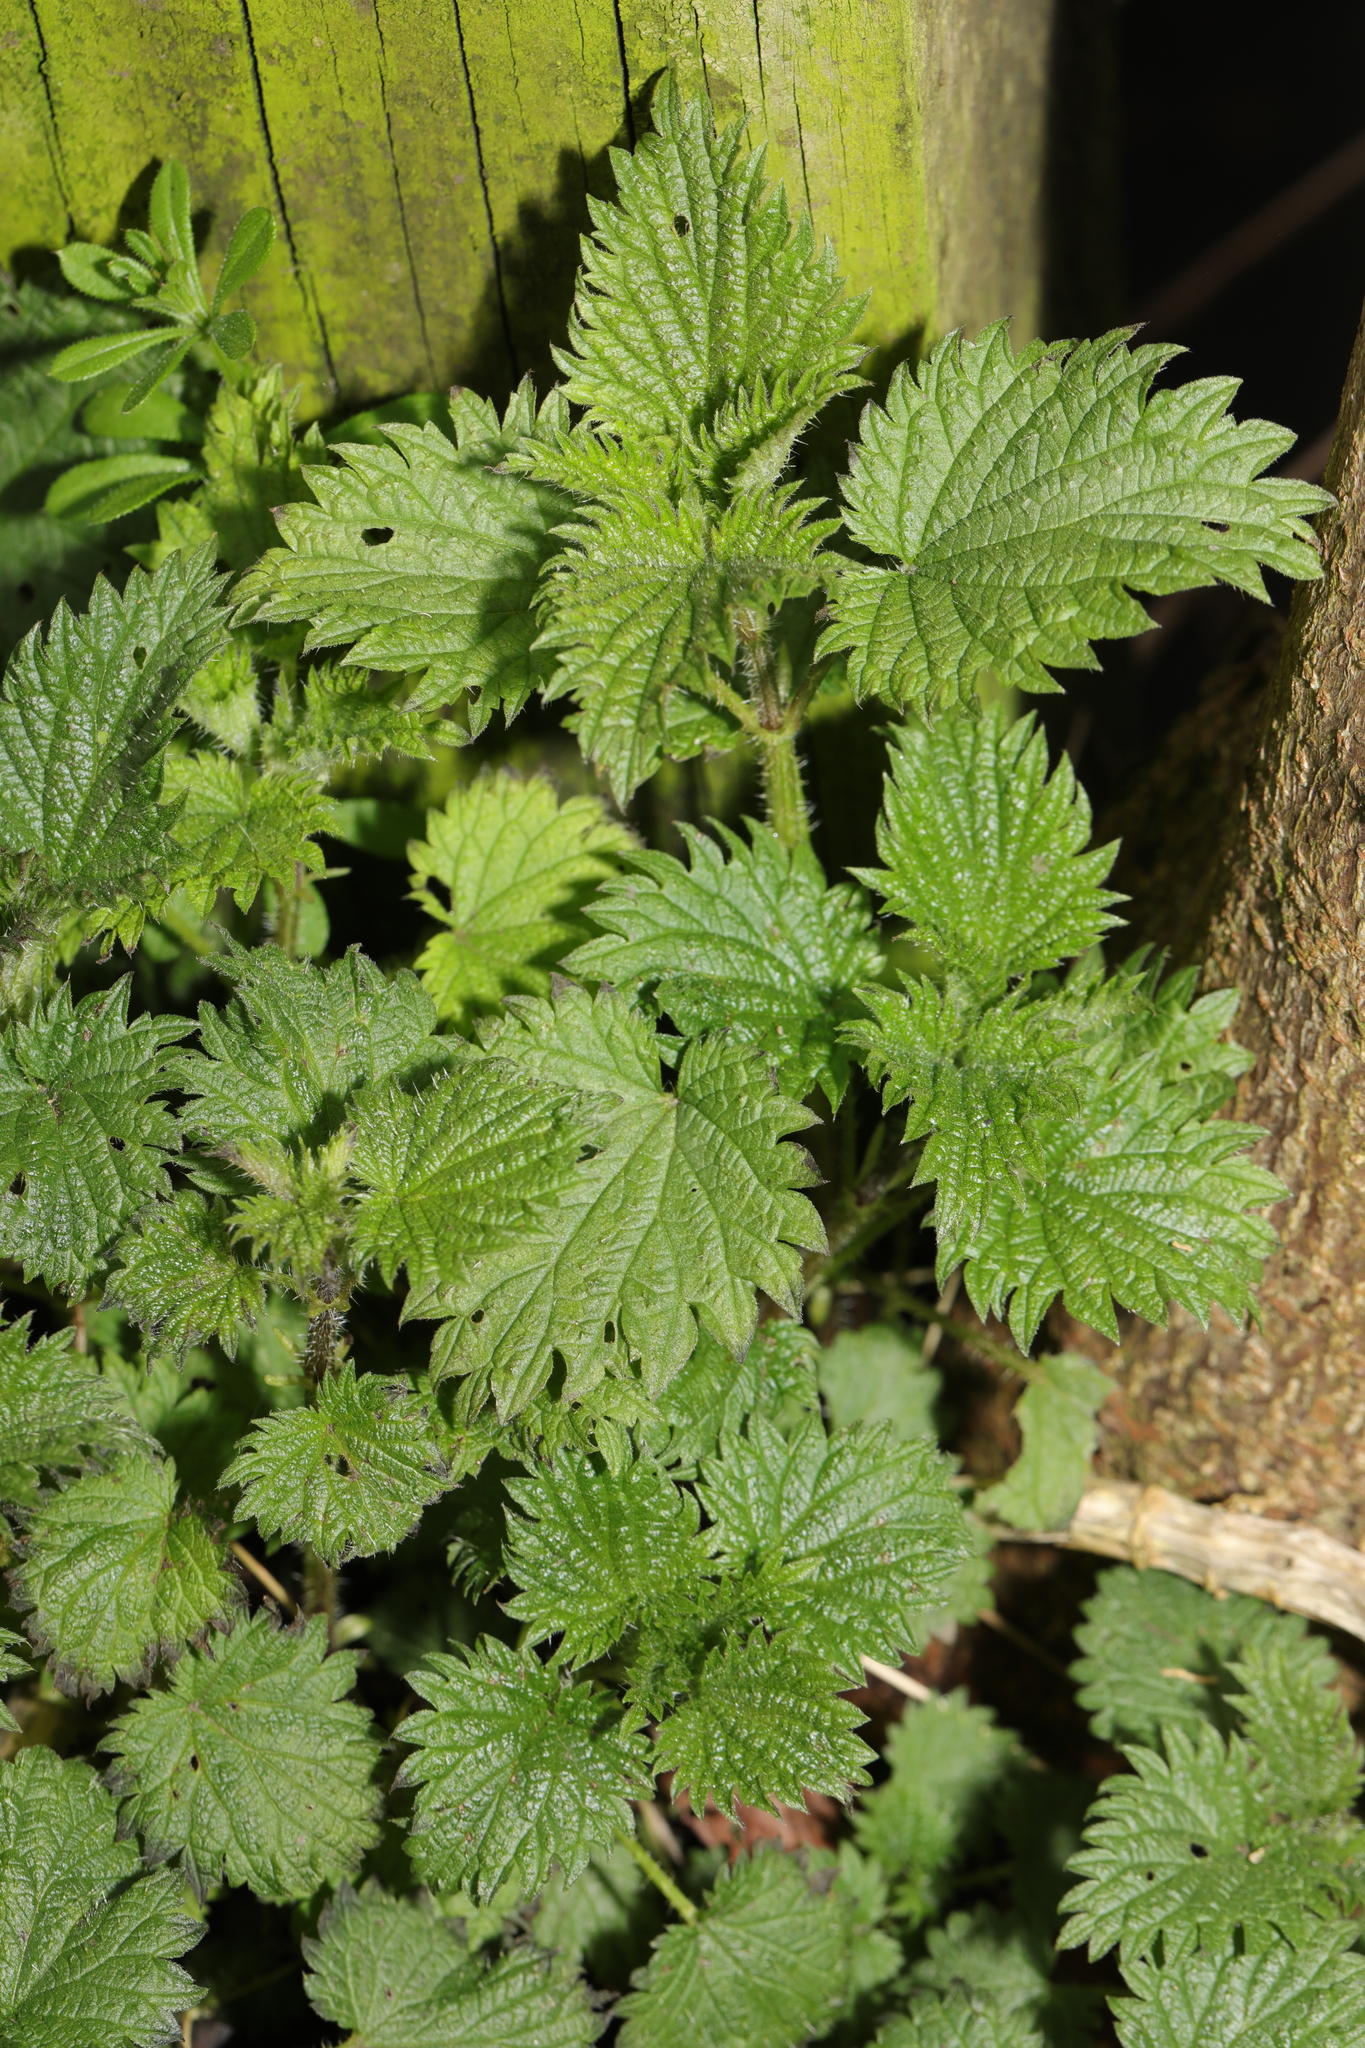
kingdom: Plantae
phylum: Tracheophyta
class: Magnoliopsida
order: Rosales
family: Urticaceae
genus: Urtica
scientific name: Urtica dioica
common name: Common nettle
